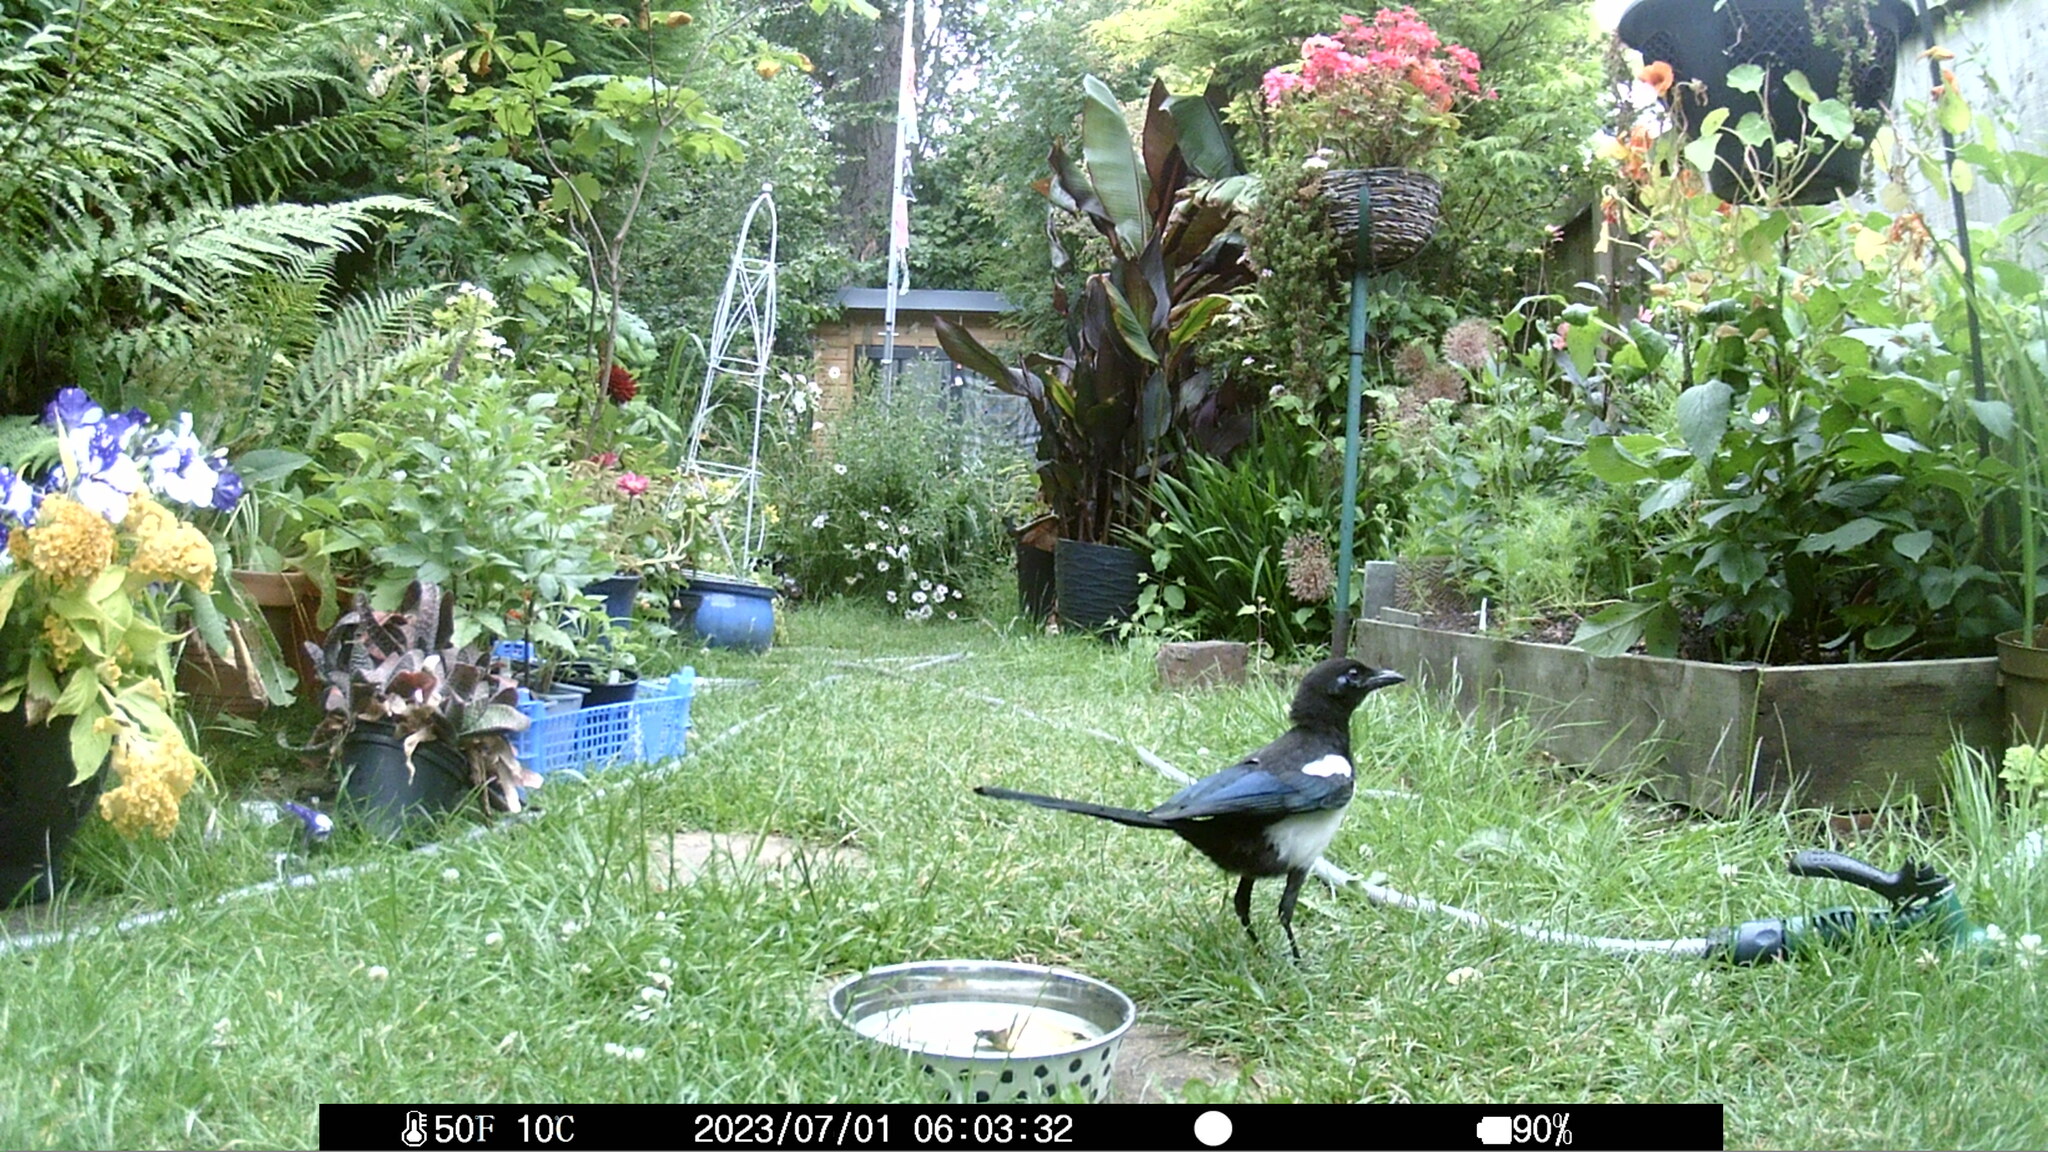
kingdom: Animalia
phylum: Chordata
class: Aves
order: Passeriformes
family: Corvidae
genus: Pica
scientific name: Pica pica
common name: Eurasian magpie
